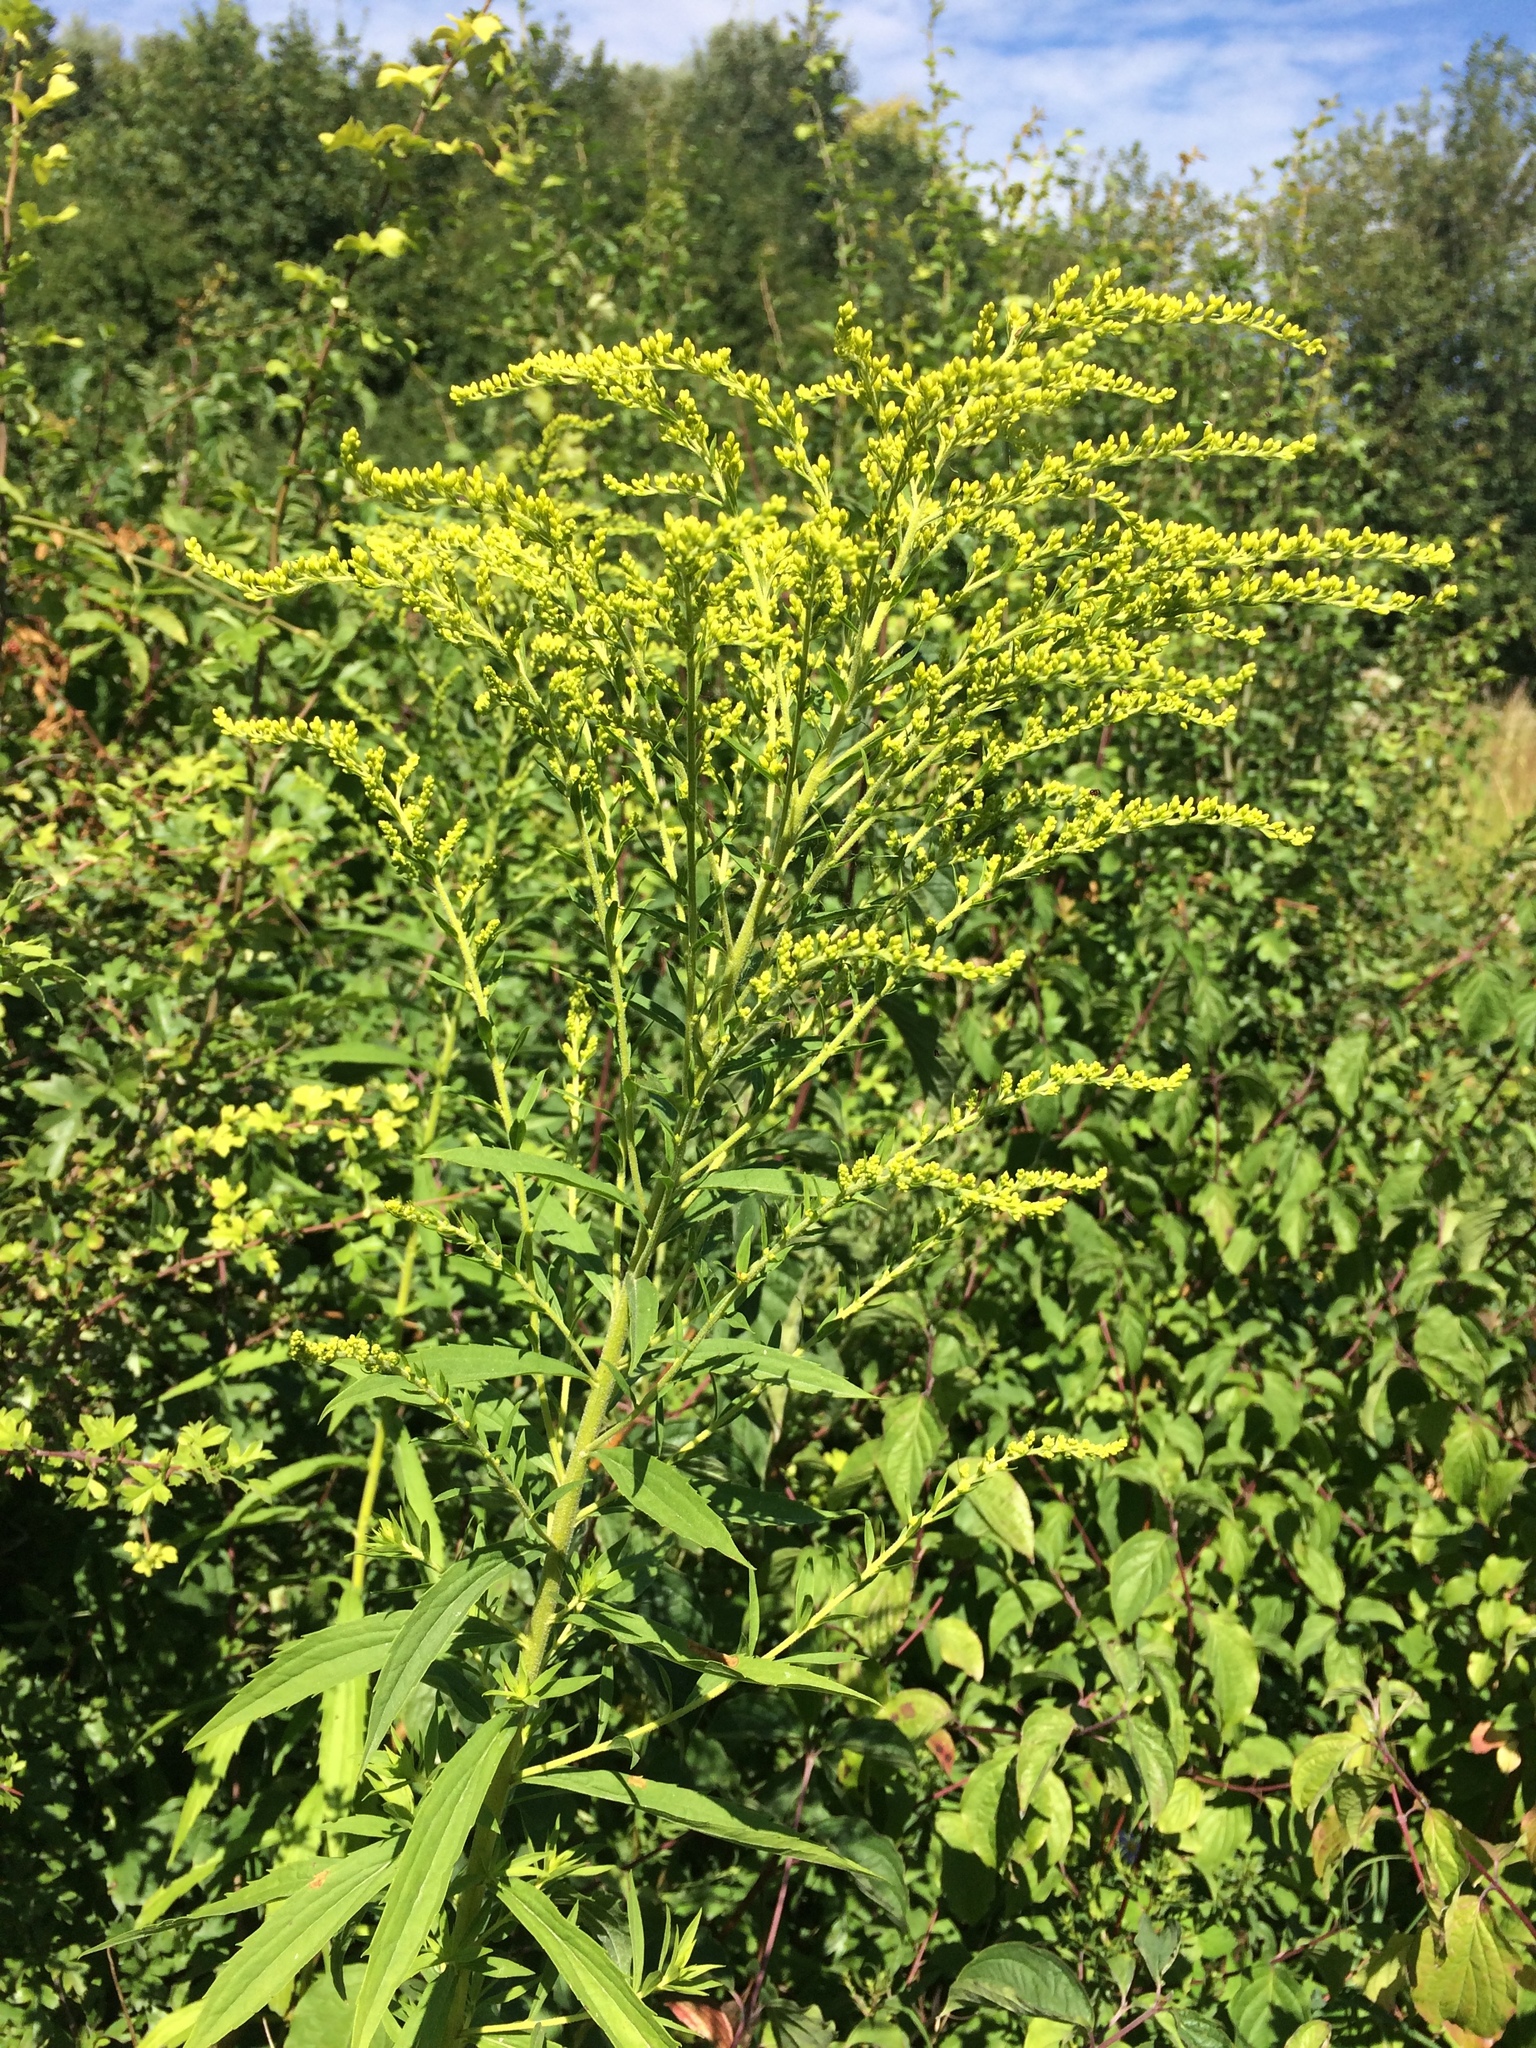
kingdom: Plantae
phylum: Tracheophyta
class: Magnoliopsida
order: Asterales
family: Asteraceae
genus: Solidago
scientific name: Solidago canadensis
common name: Canada goldenrod
